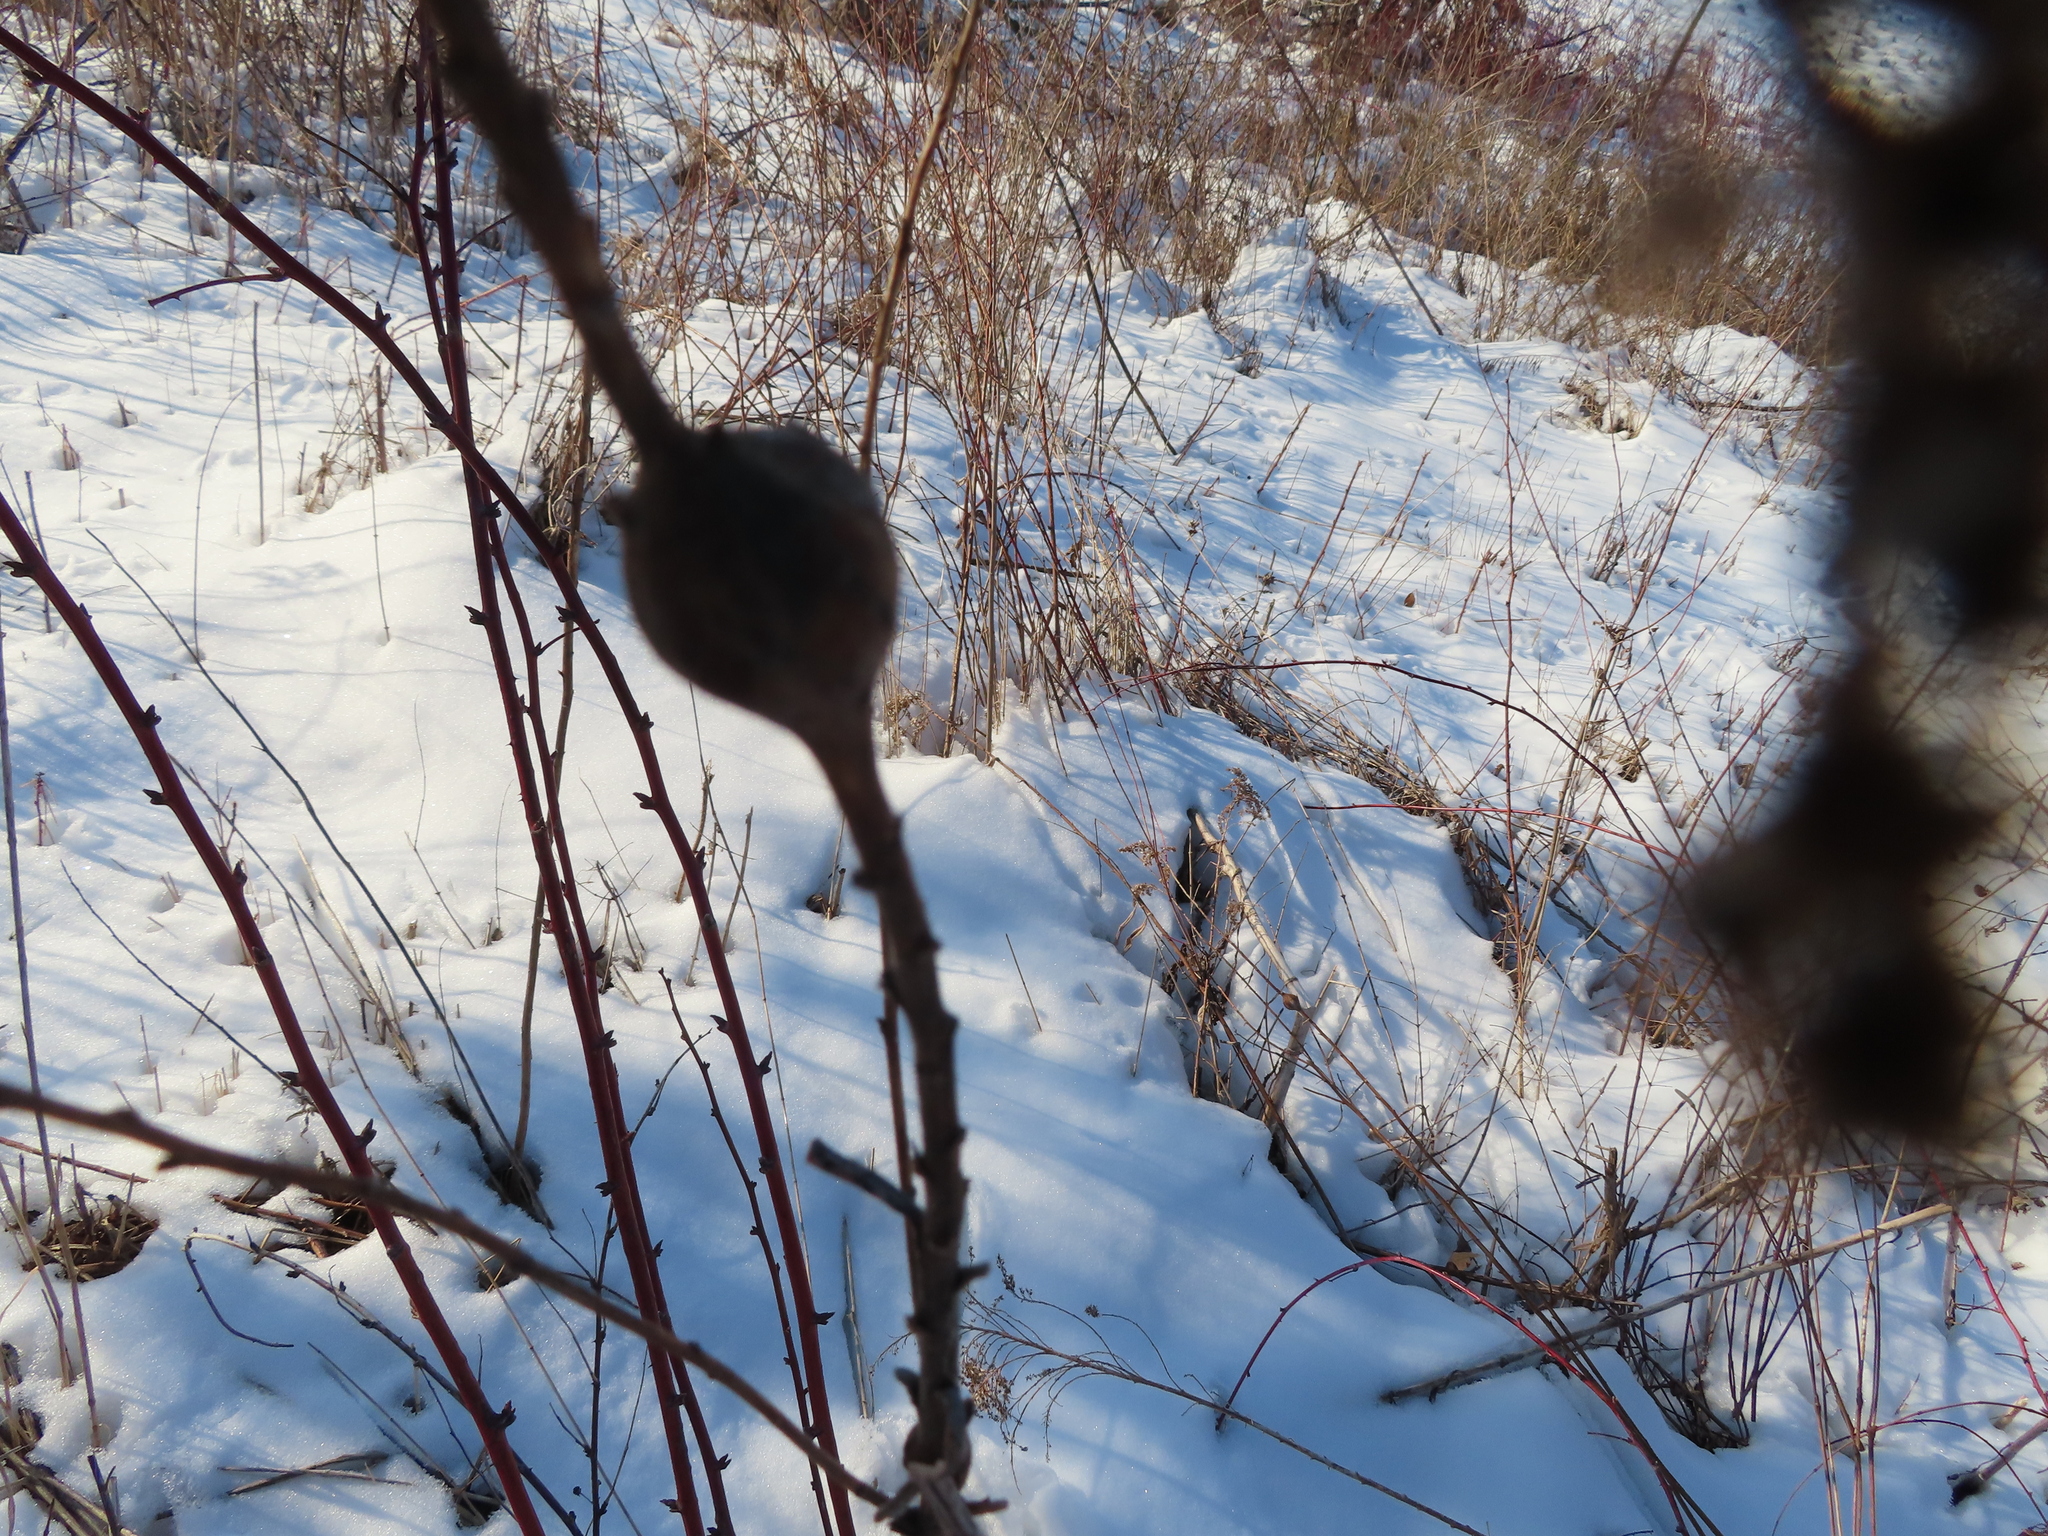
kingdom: Animalia
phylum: Arthropoda
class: Insecta
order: Diptera
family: Tephritidae
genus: Eurosta
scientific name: Eurosta solidaginis
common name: Goldenrod gall fly
